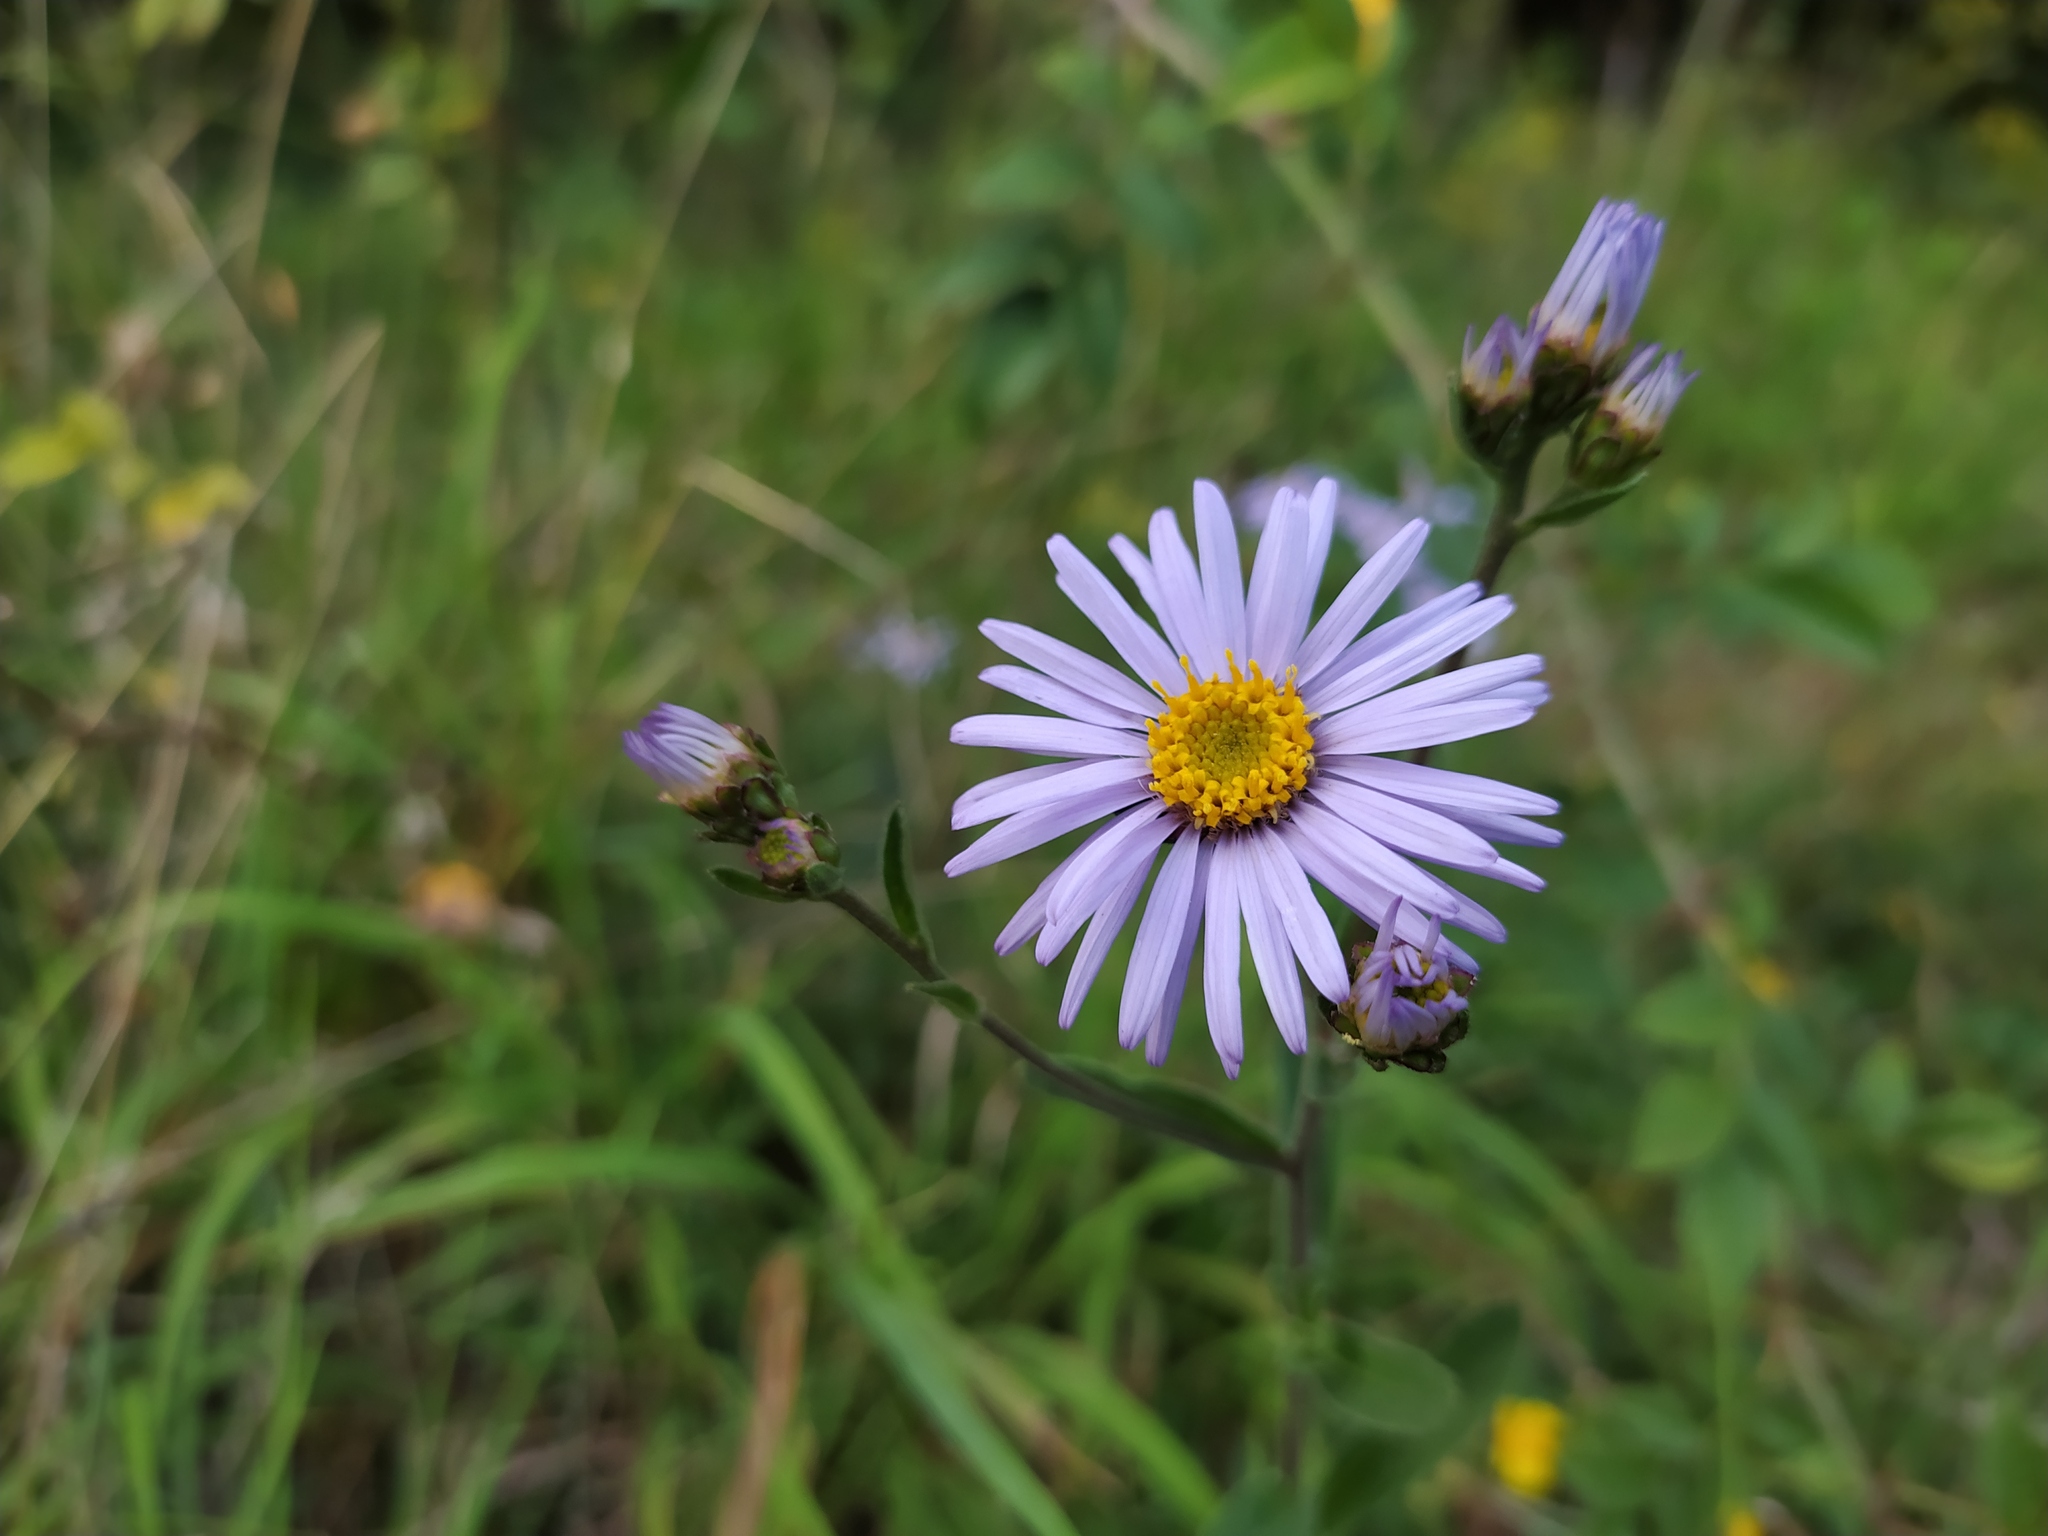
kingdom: Plantae
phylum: Tracheophyta
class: Magnoliopsida
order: Asterales
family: Asteraceae
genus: Aster
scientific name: Aster amellus
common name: European michaelmas daisy
